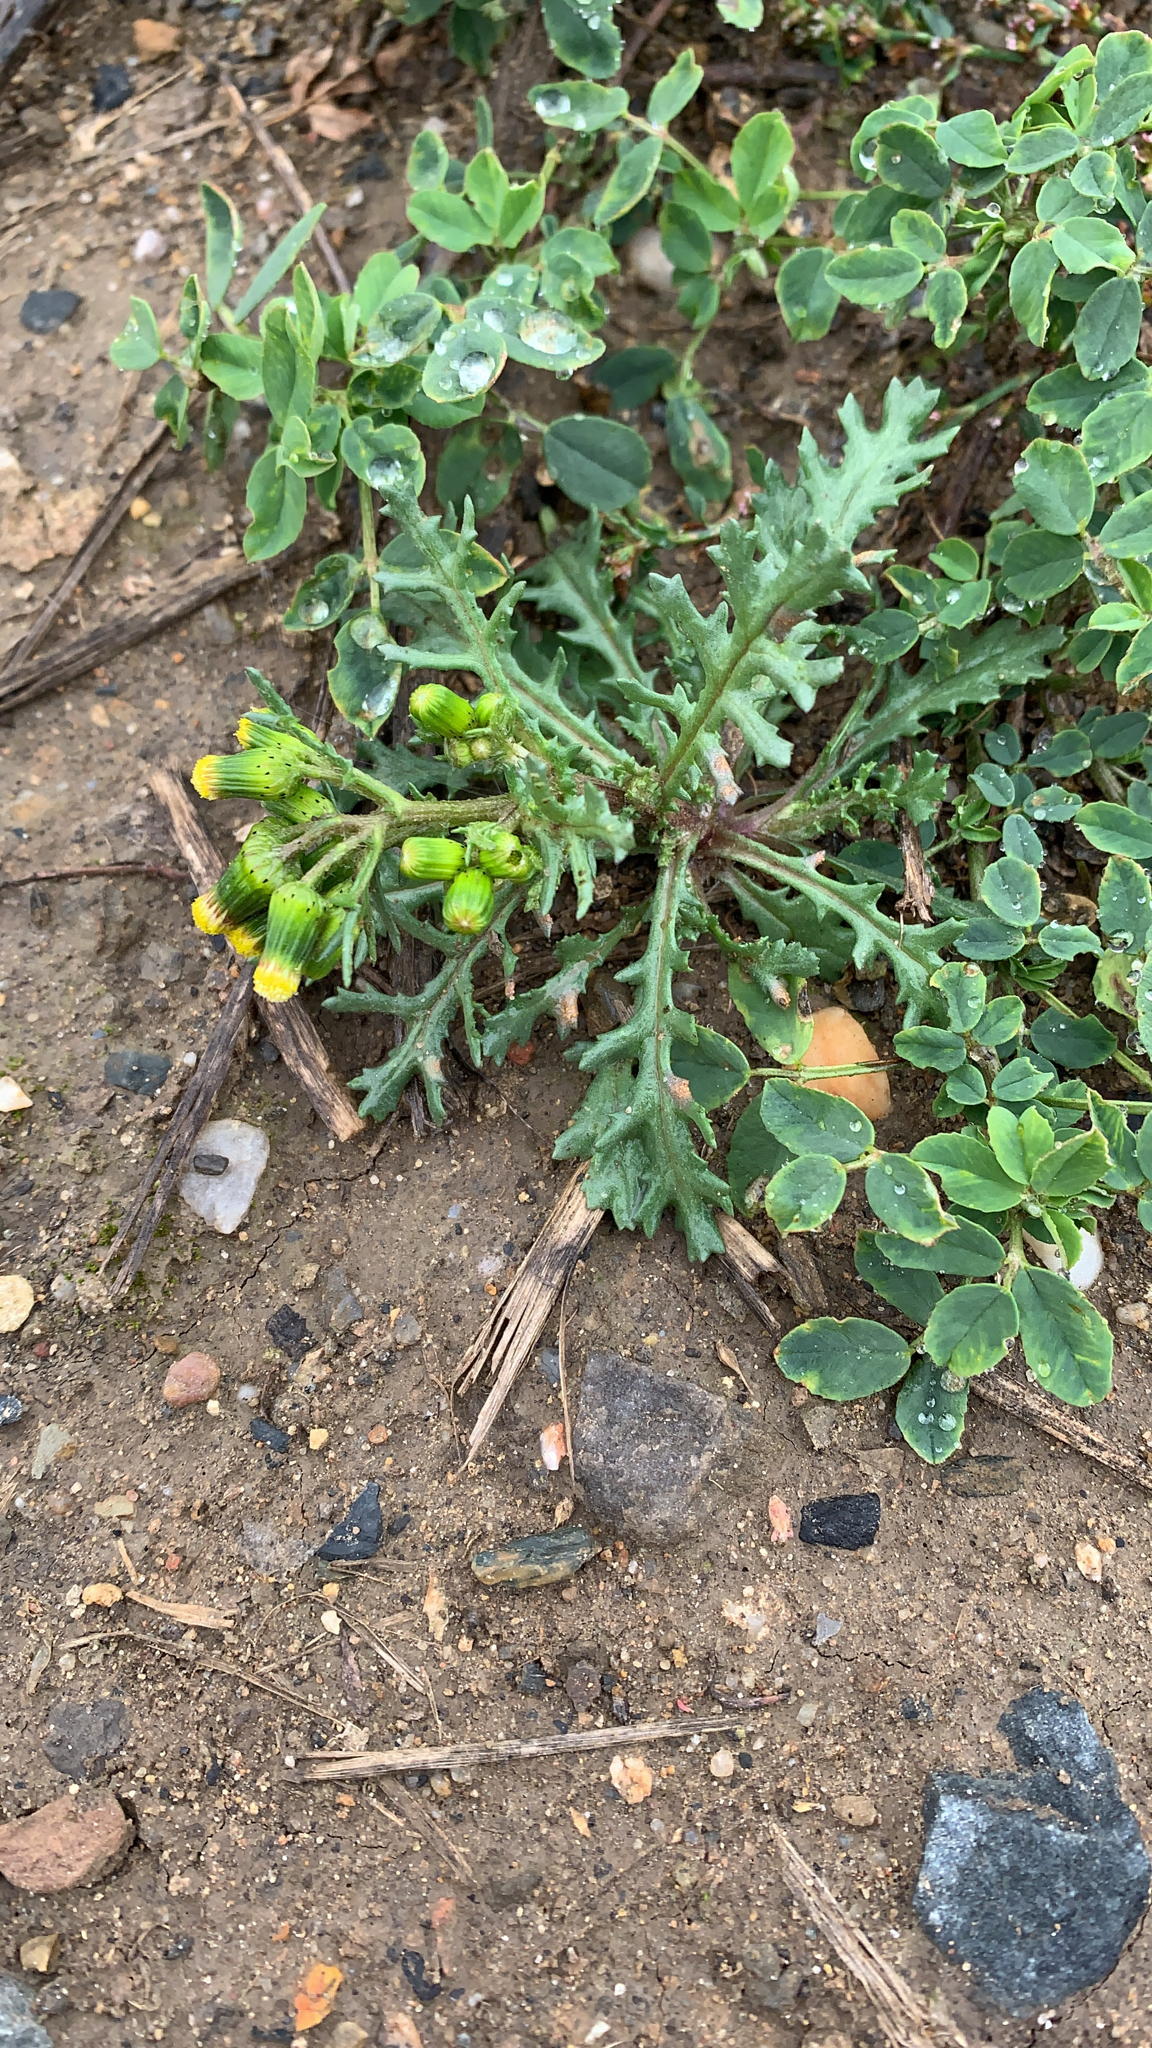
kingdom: Plantae
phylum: Tracheophyta
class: Magnoliopsida
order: Asterales
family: Asteraceae
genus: Senecio
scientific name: Senecio vulgaris
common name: Old-man-in-the-spring
